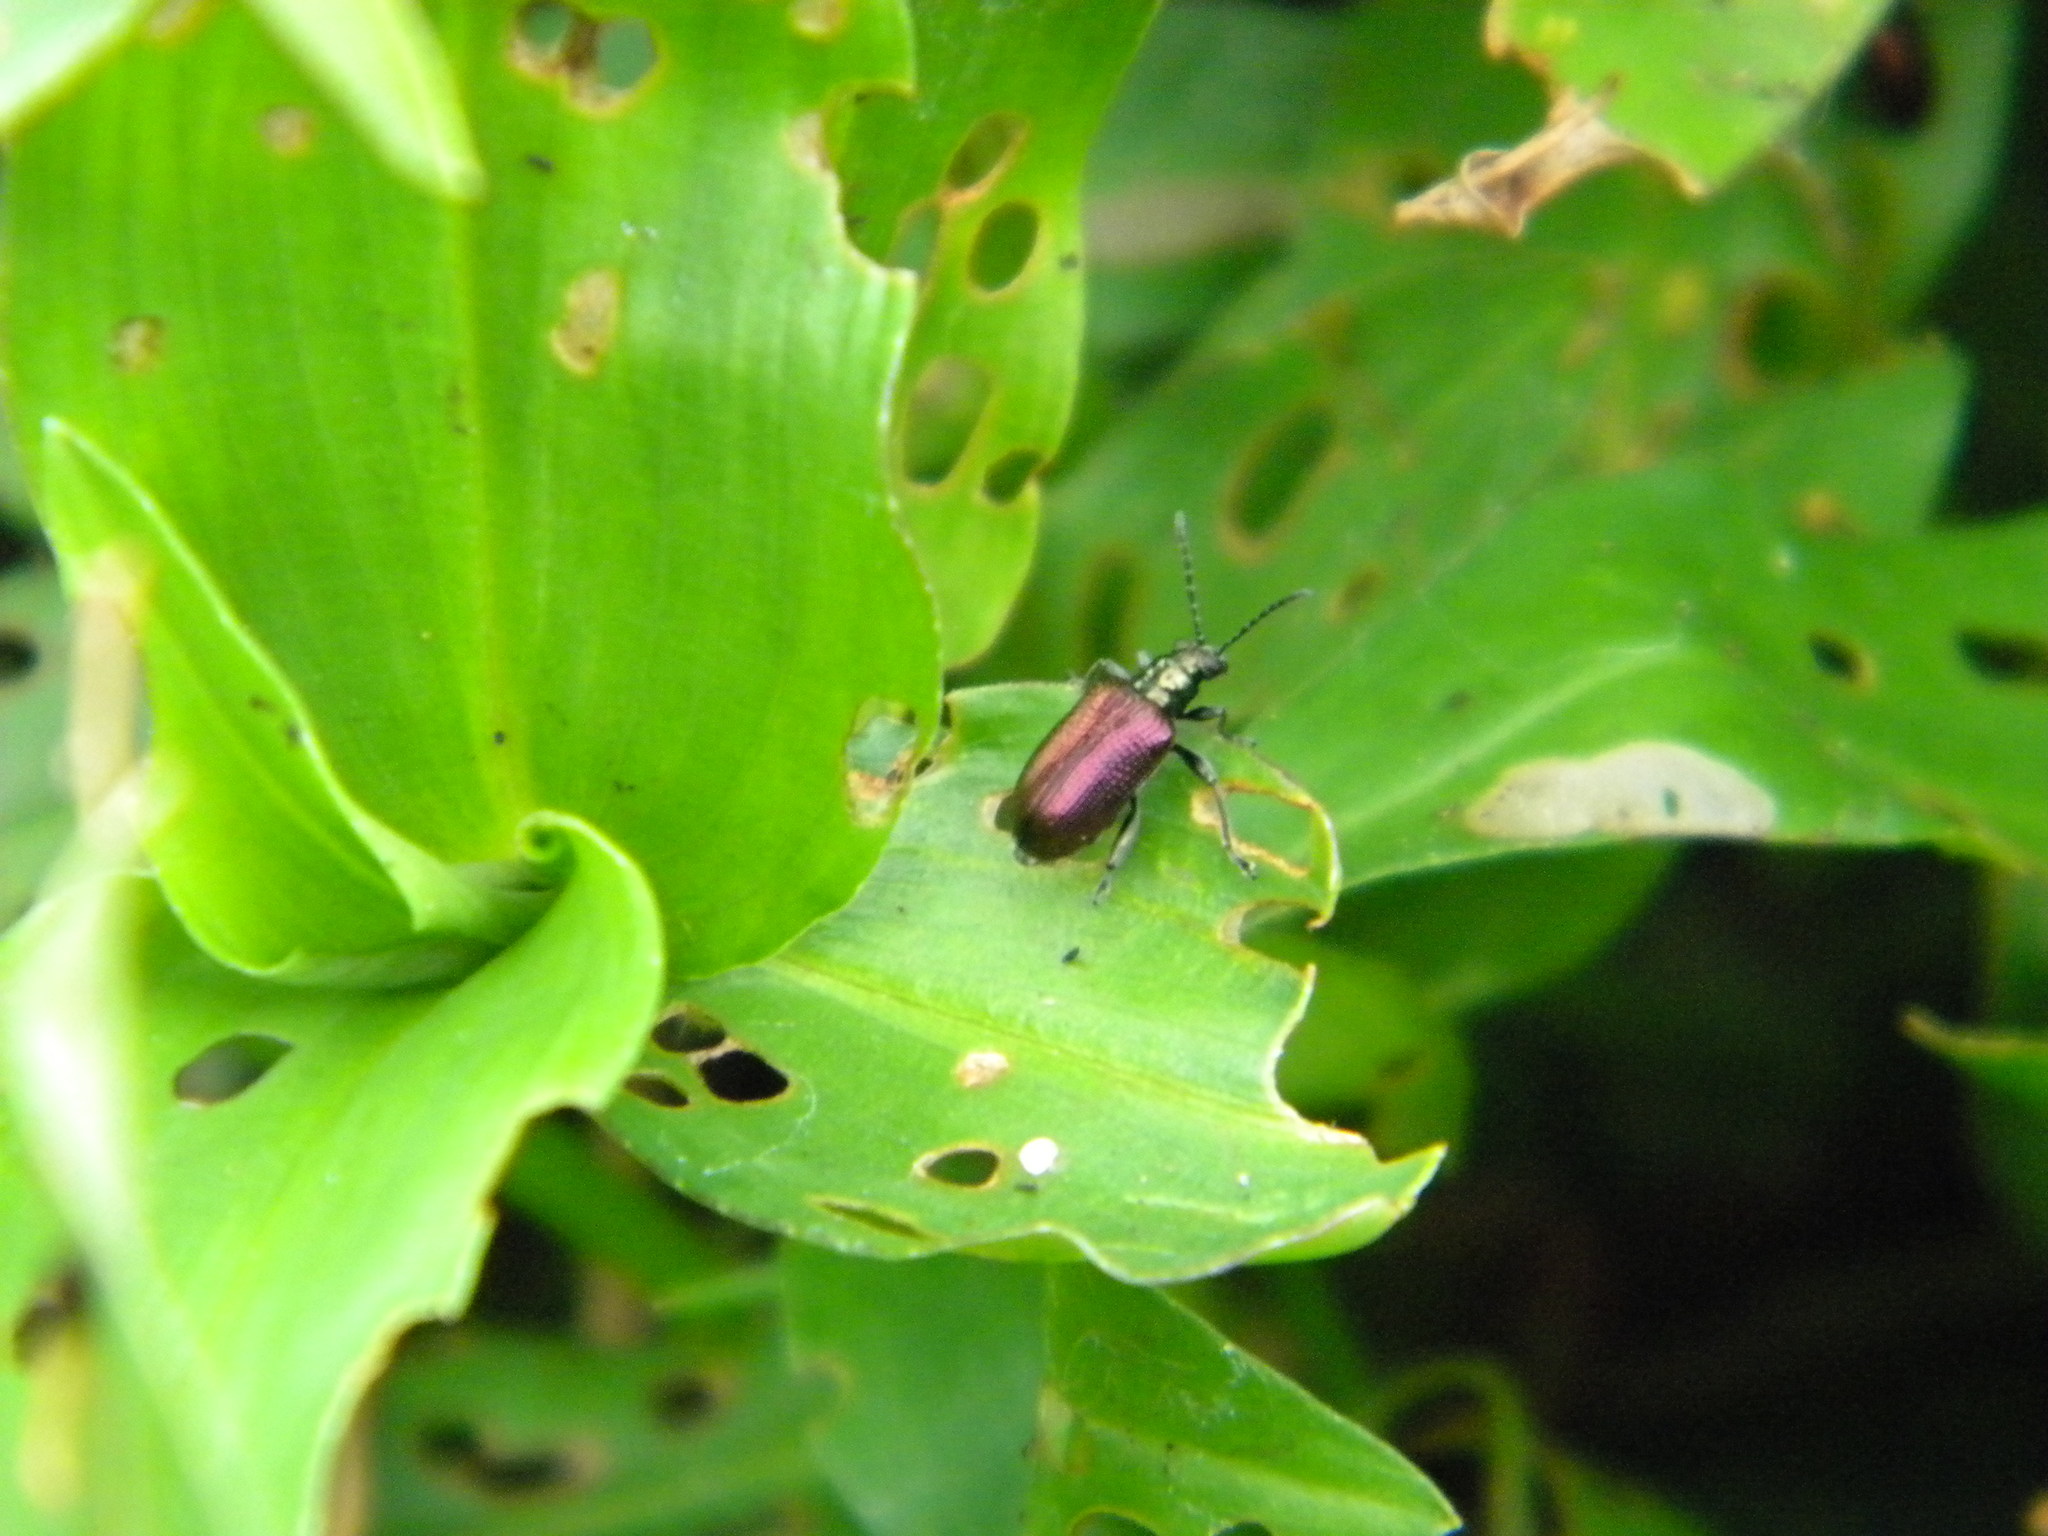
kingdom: Animalia
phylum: Arthropoda
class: Insecta
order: Coleoptera
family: Chrysomelidae
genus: Lema
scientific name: Lema
